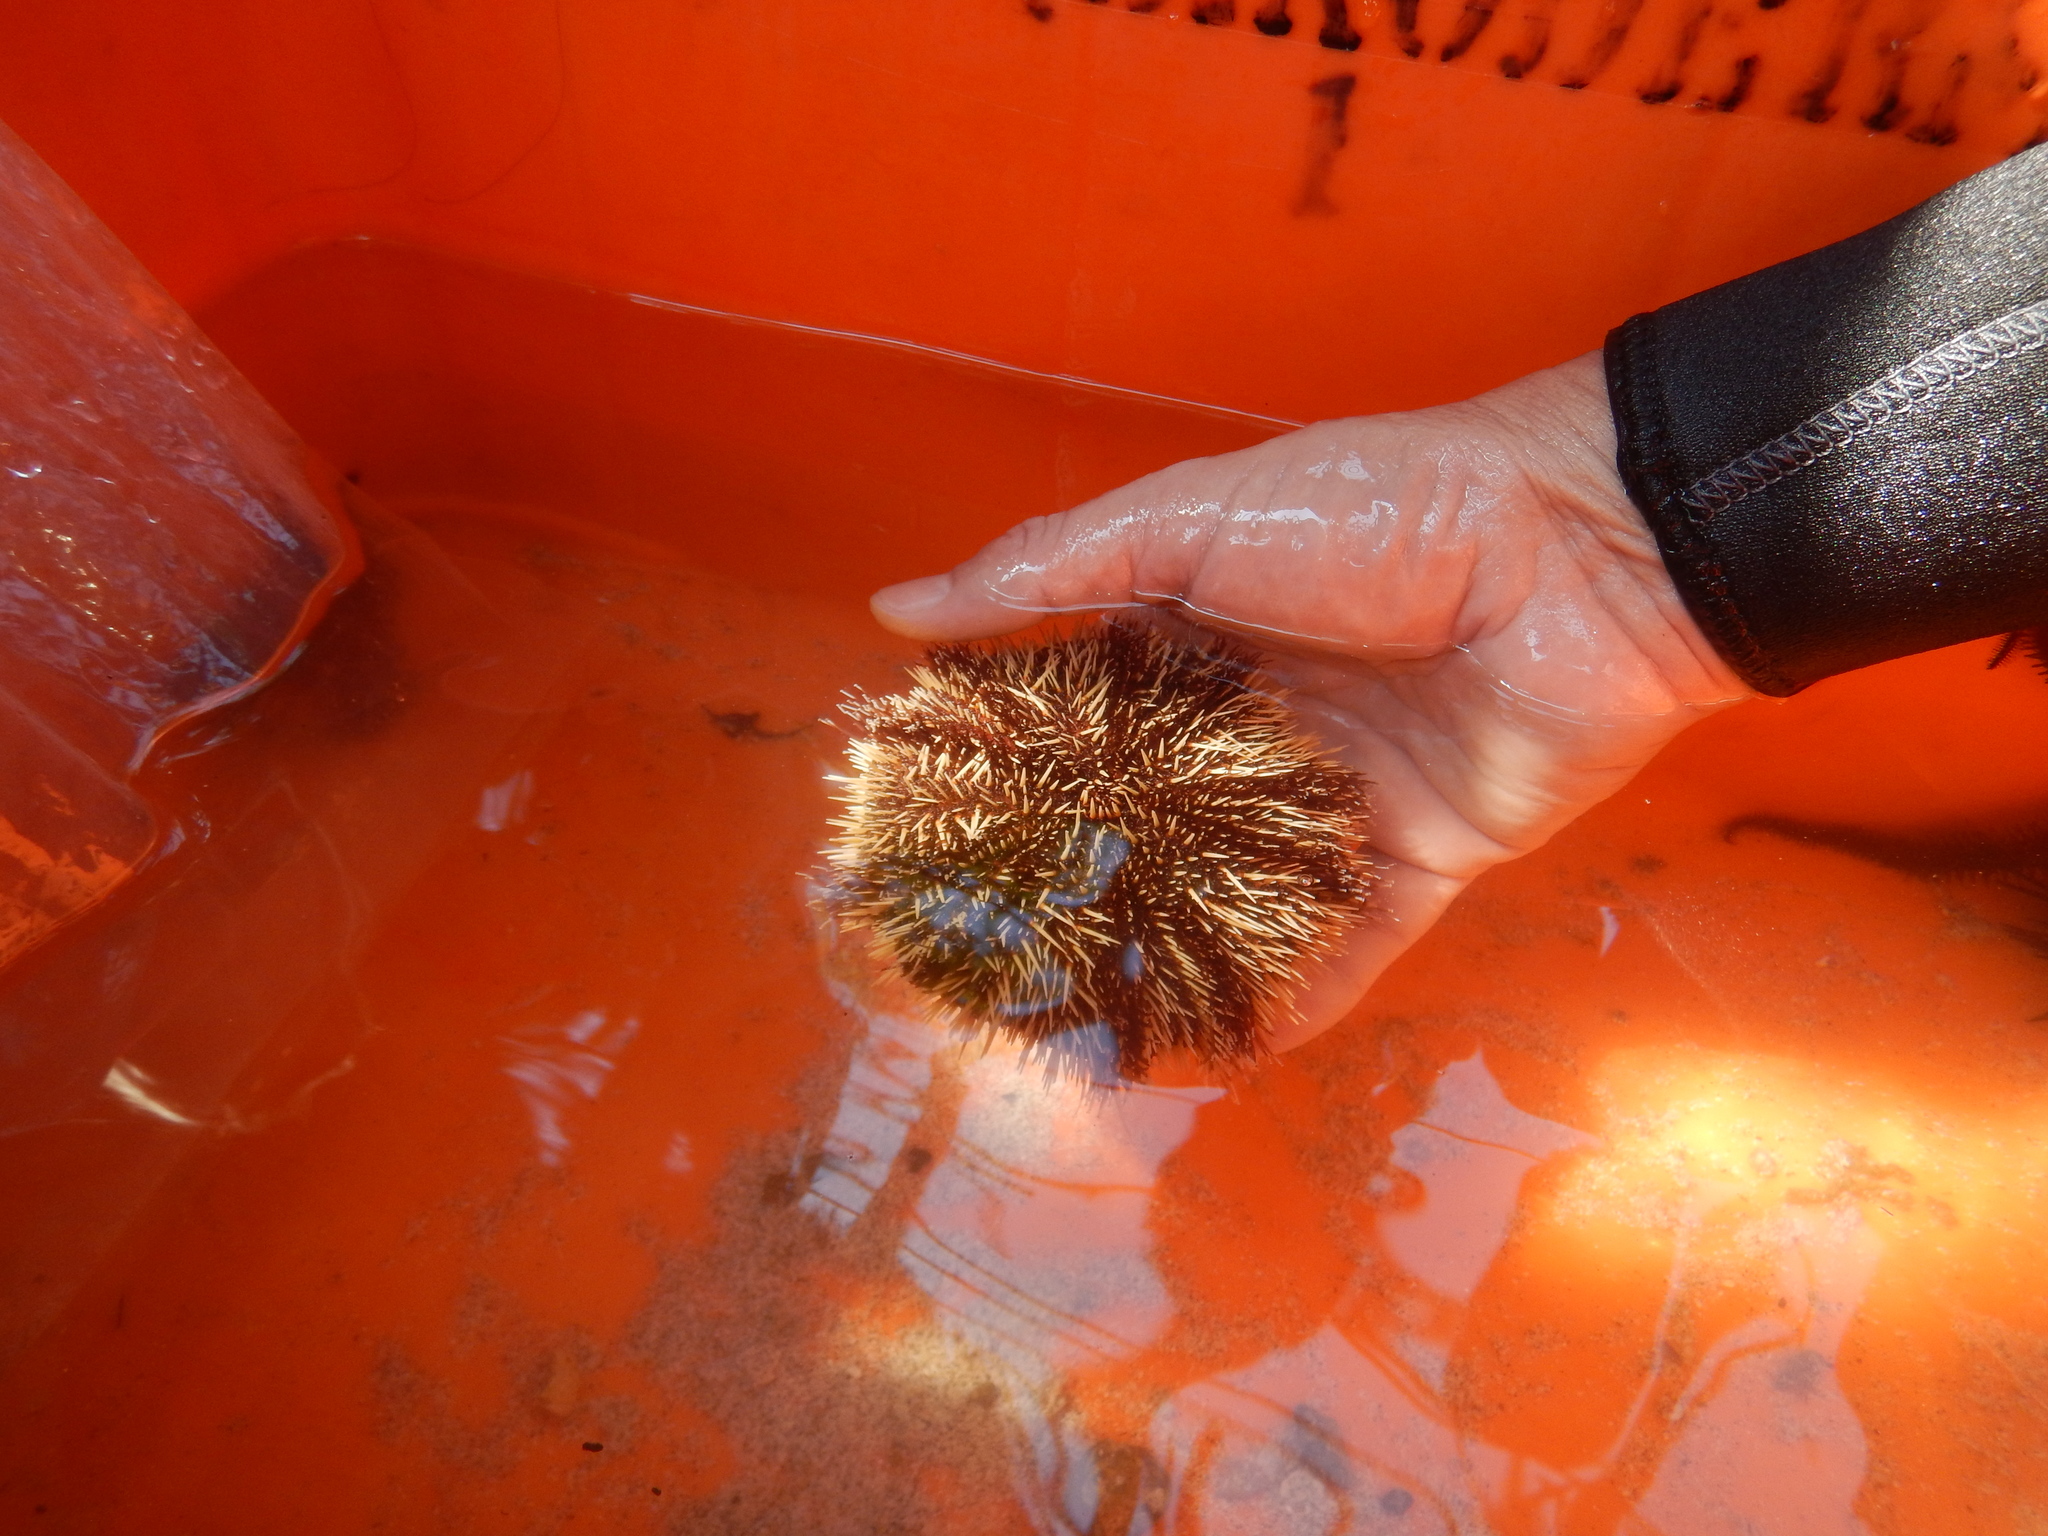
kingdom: Animalia
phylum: Echinodermata
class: Echinoidea
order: Camarodonta
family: Toxopneustidae
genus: Tripneustes
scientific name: Tripneustes depressus
